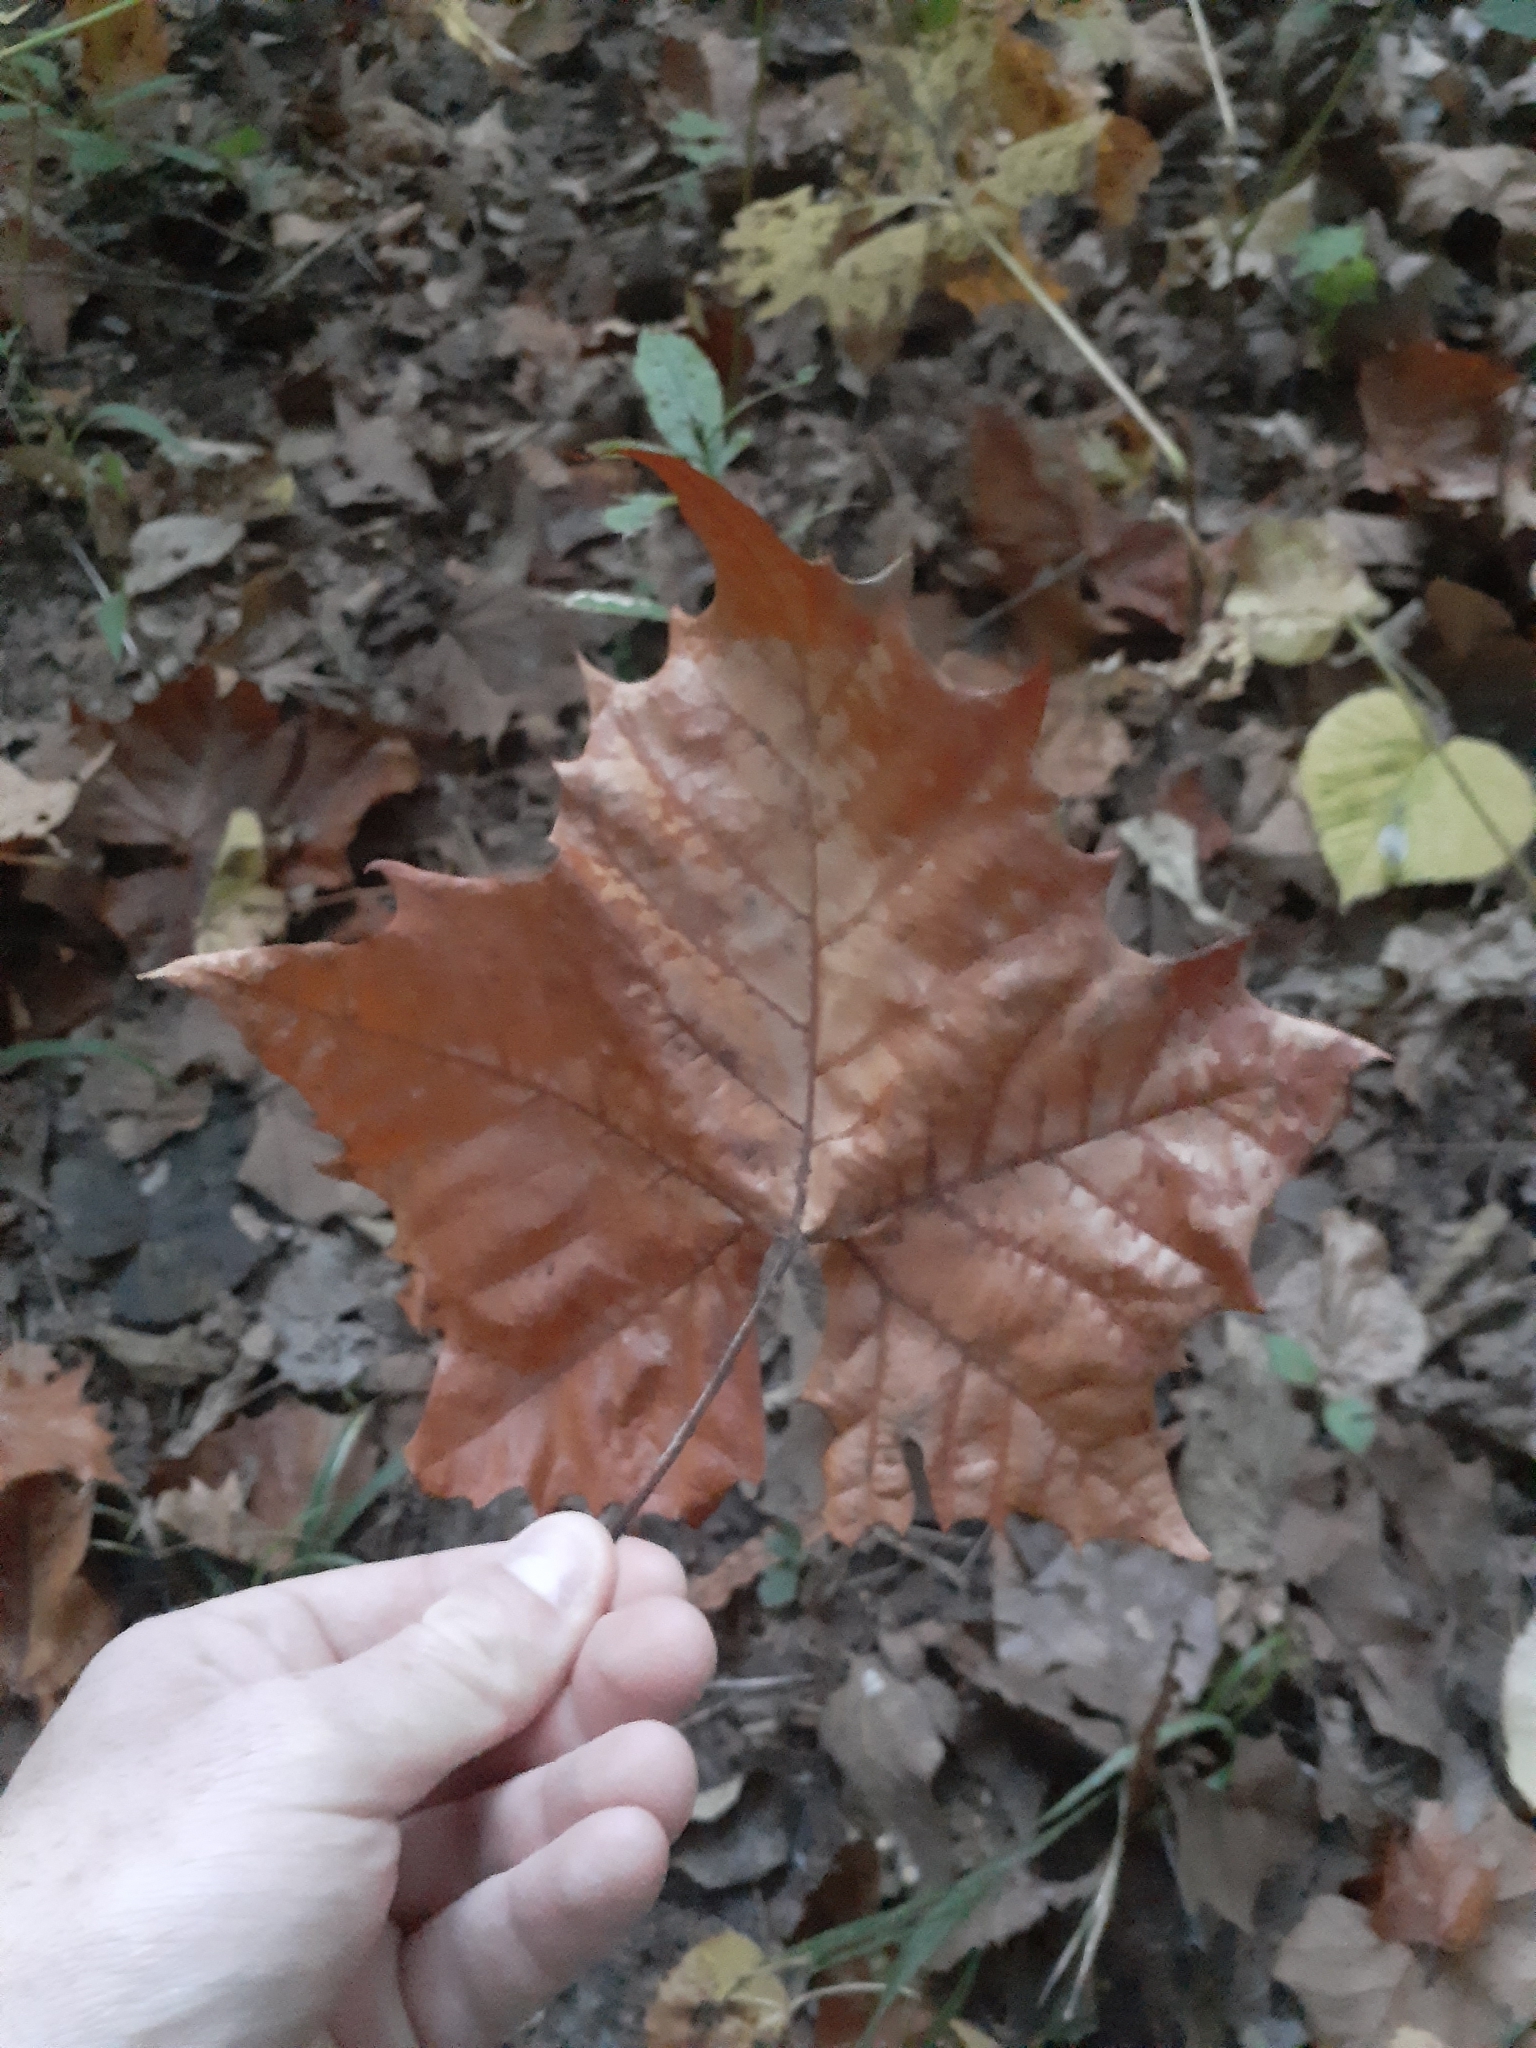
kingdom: Plantae
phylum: Tracheophyta
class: Magnoliopsida
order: Proteales
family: Platanaceae
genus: Platanus
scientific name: Platanus occidentalis
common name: American sycamore
